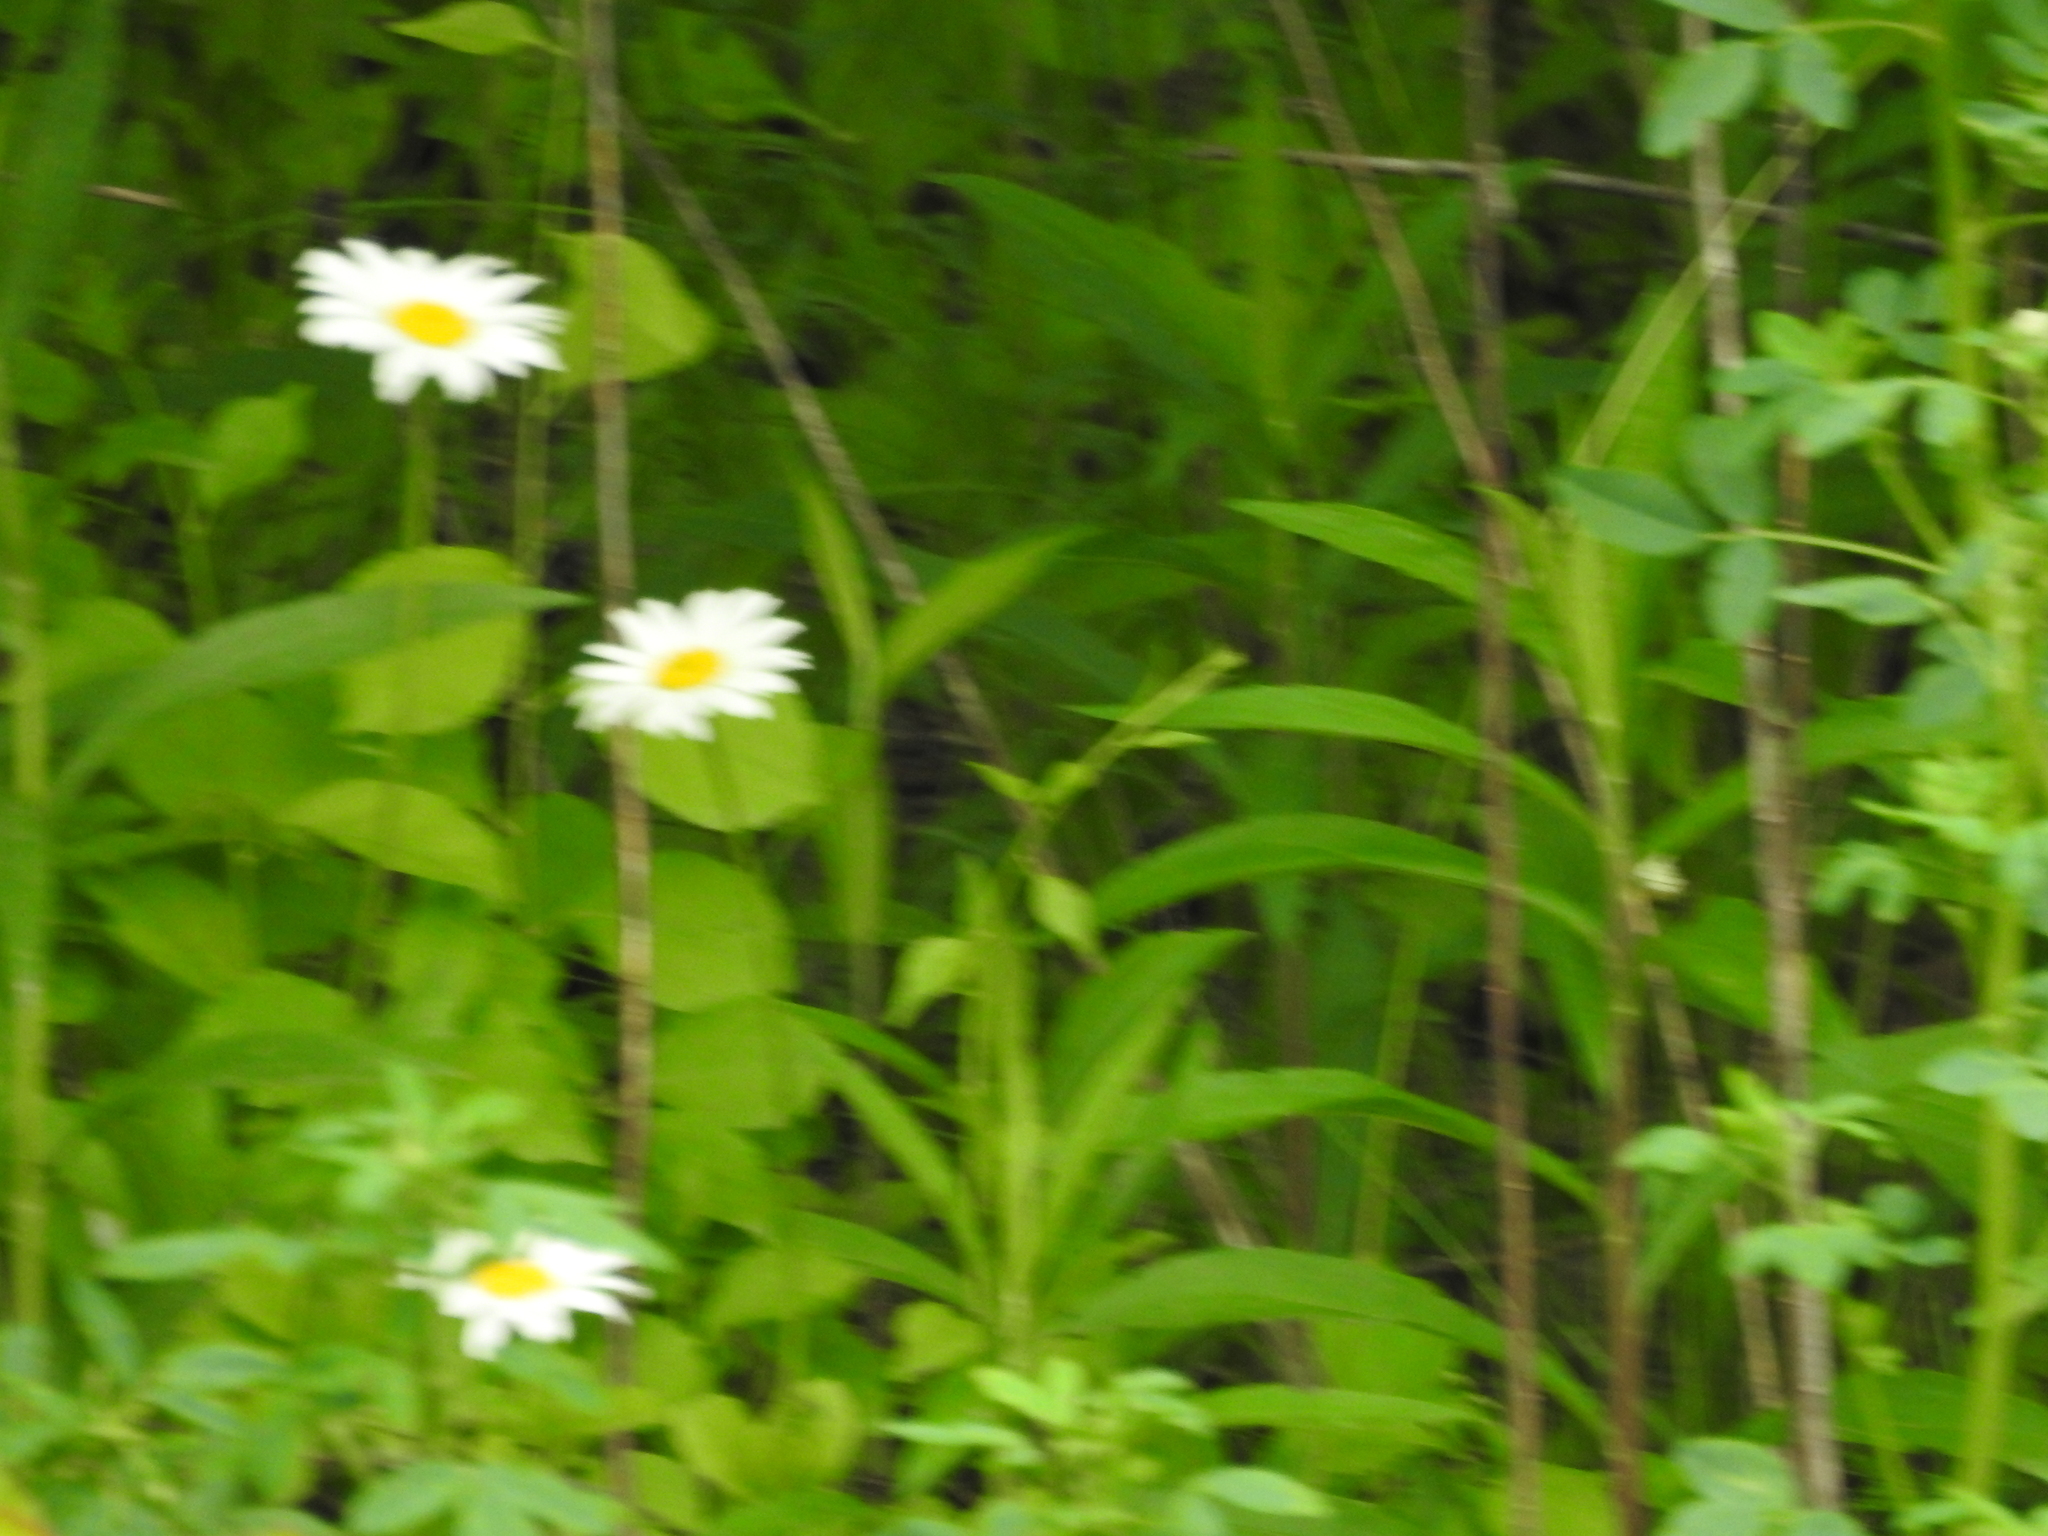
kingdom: Plantae
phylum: Tracheophyta
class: Magnoliopsida
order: Asterales
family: Asteraceae
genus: Leucanthemum
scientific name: Leucanthemum vulgare
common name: Oxeye daisy
